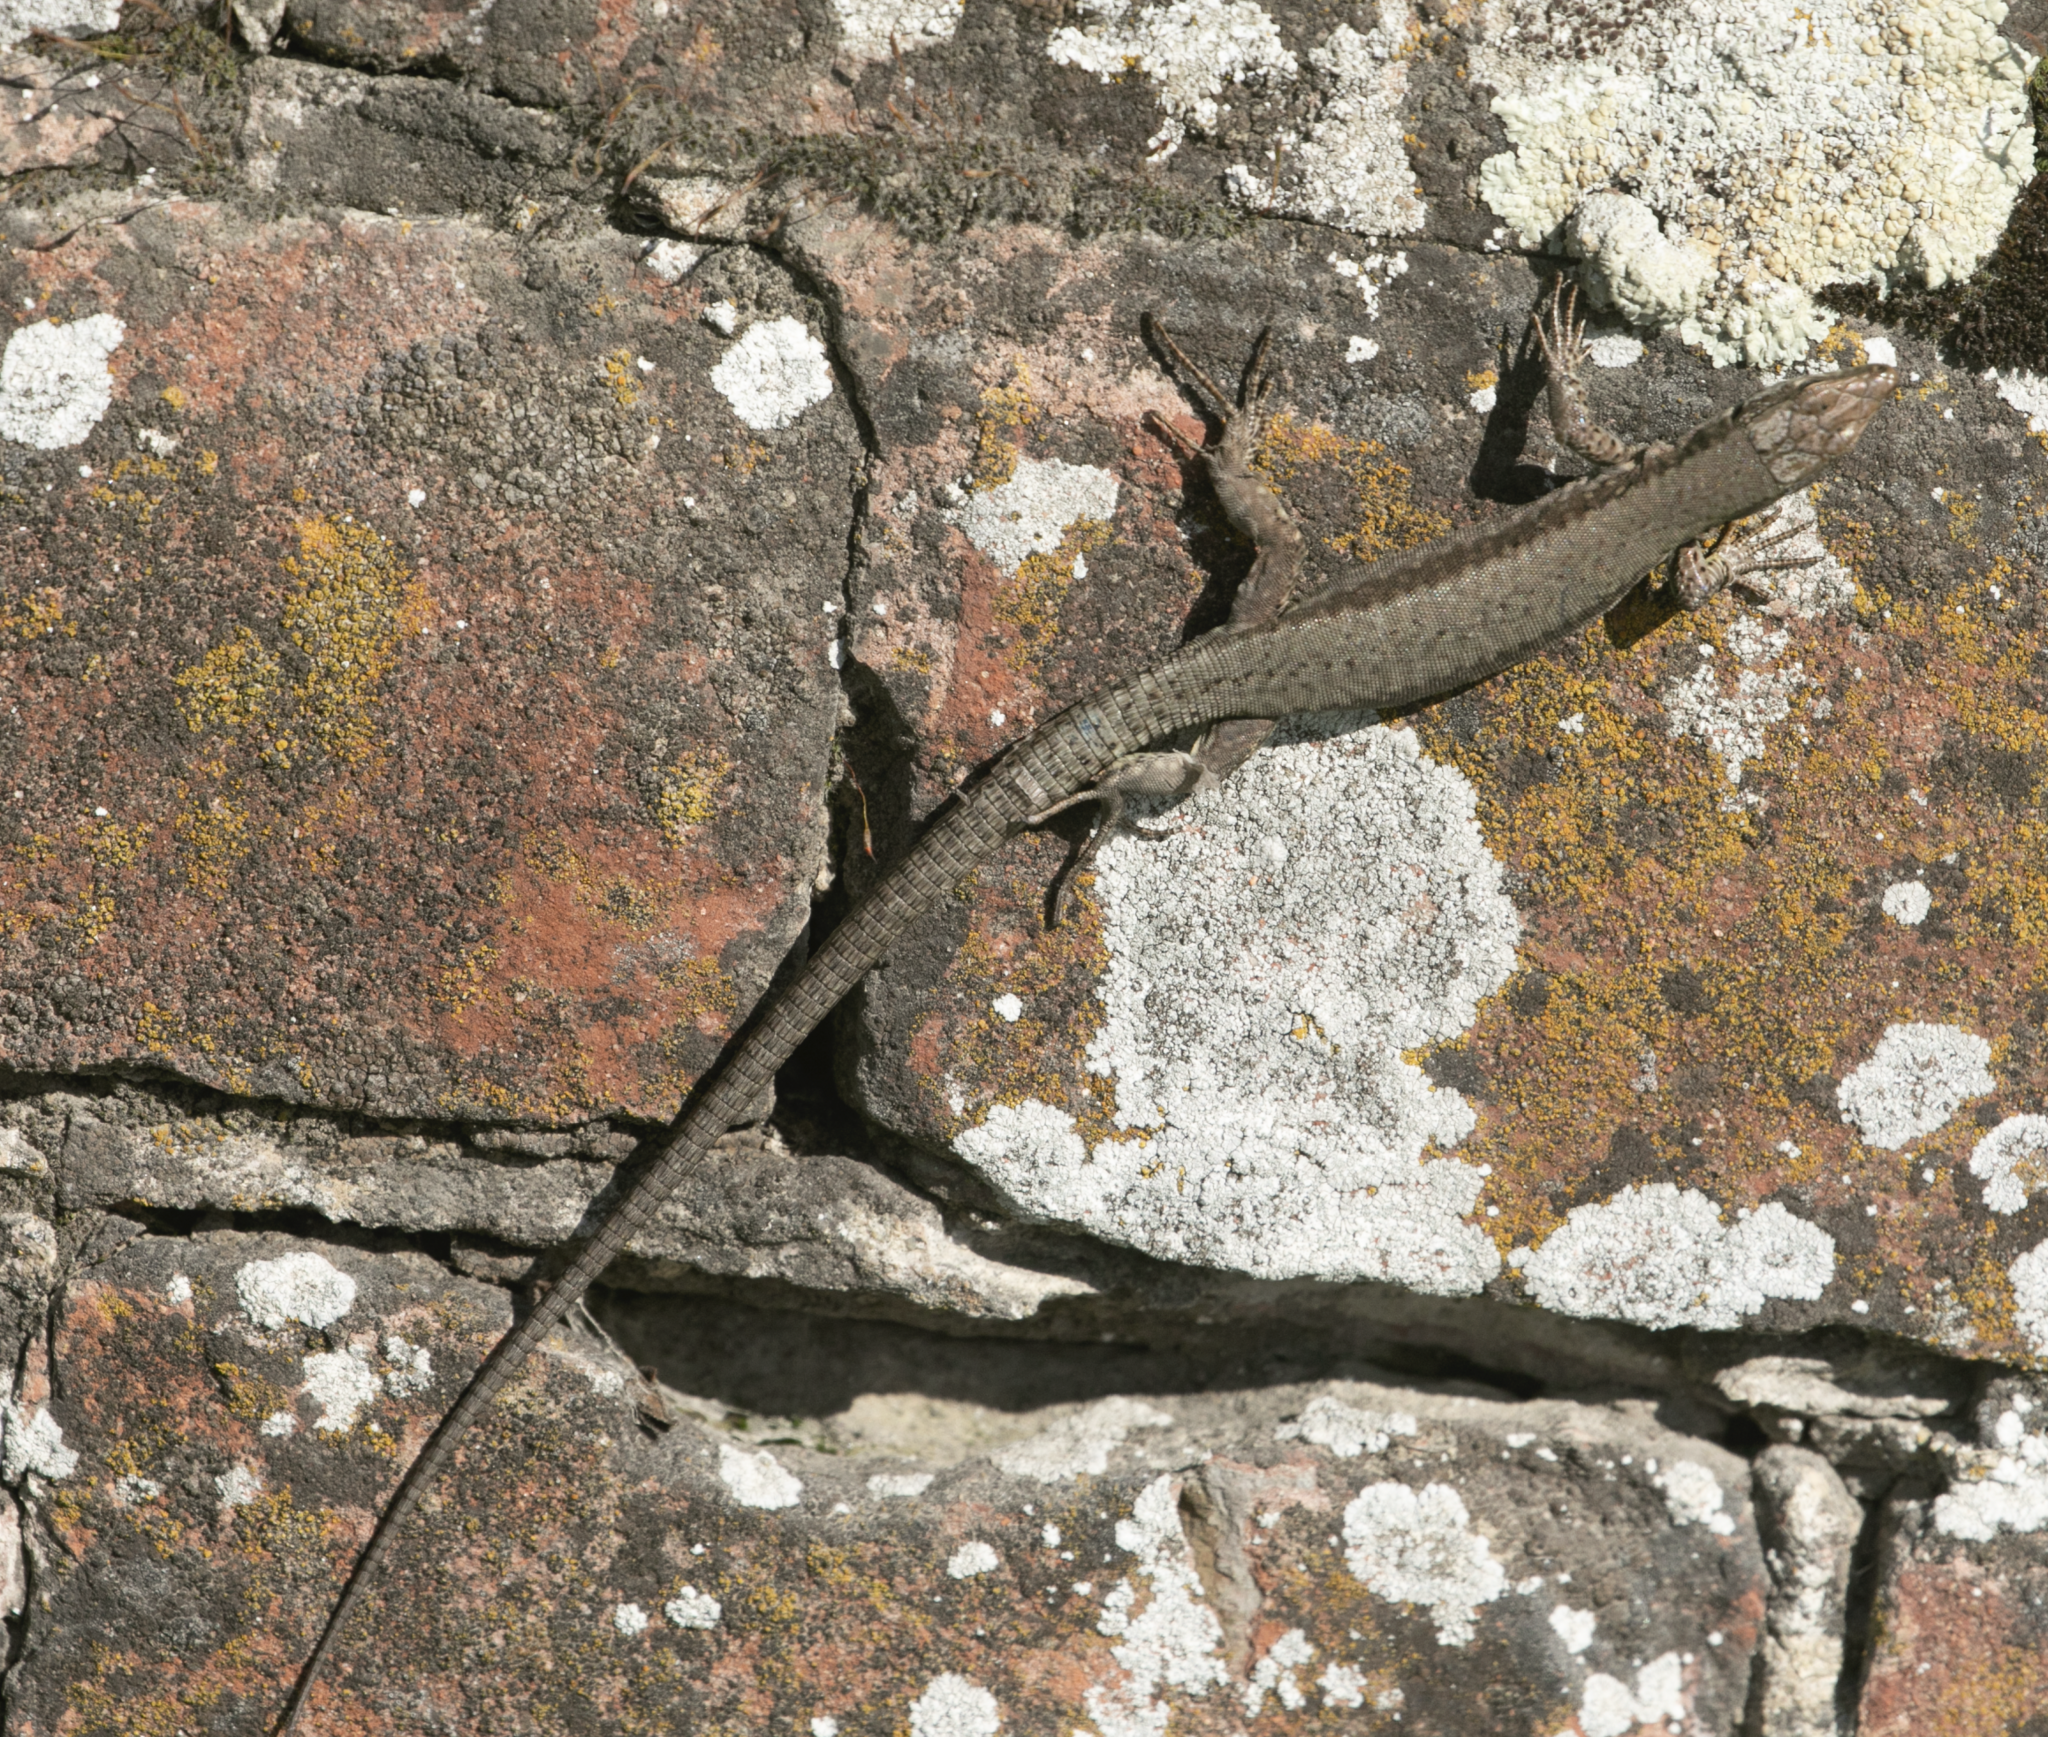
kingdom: Animalia
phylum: Chordata
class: Squamata
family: Lacertidae
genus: Podarcis
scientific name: Podarcis muralis
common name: Common wall lizard
